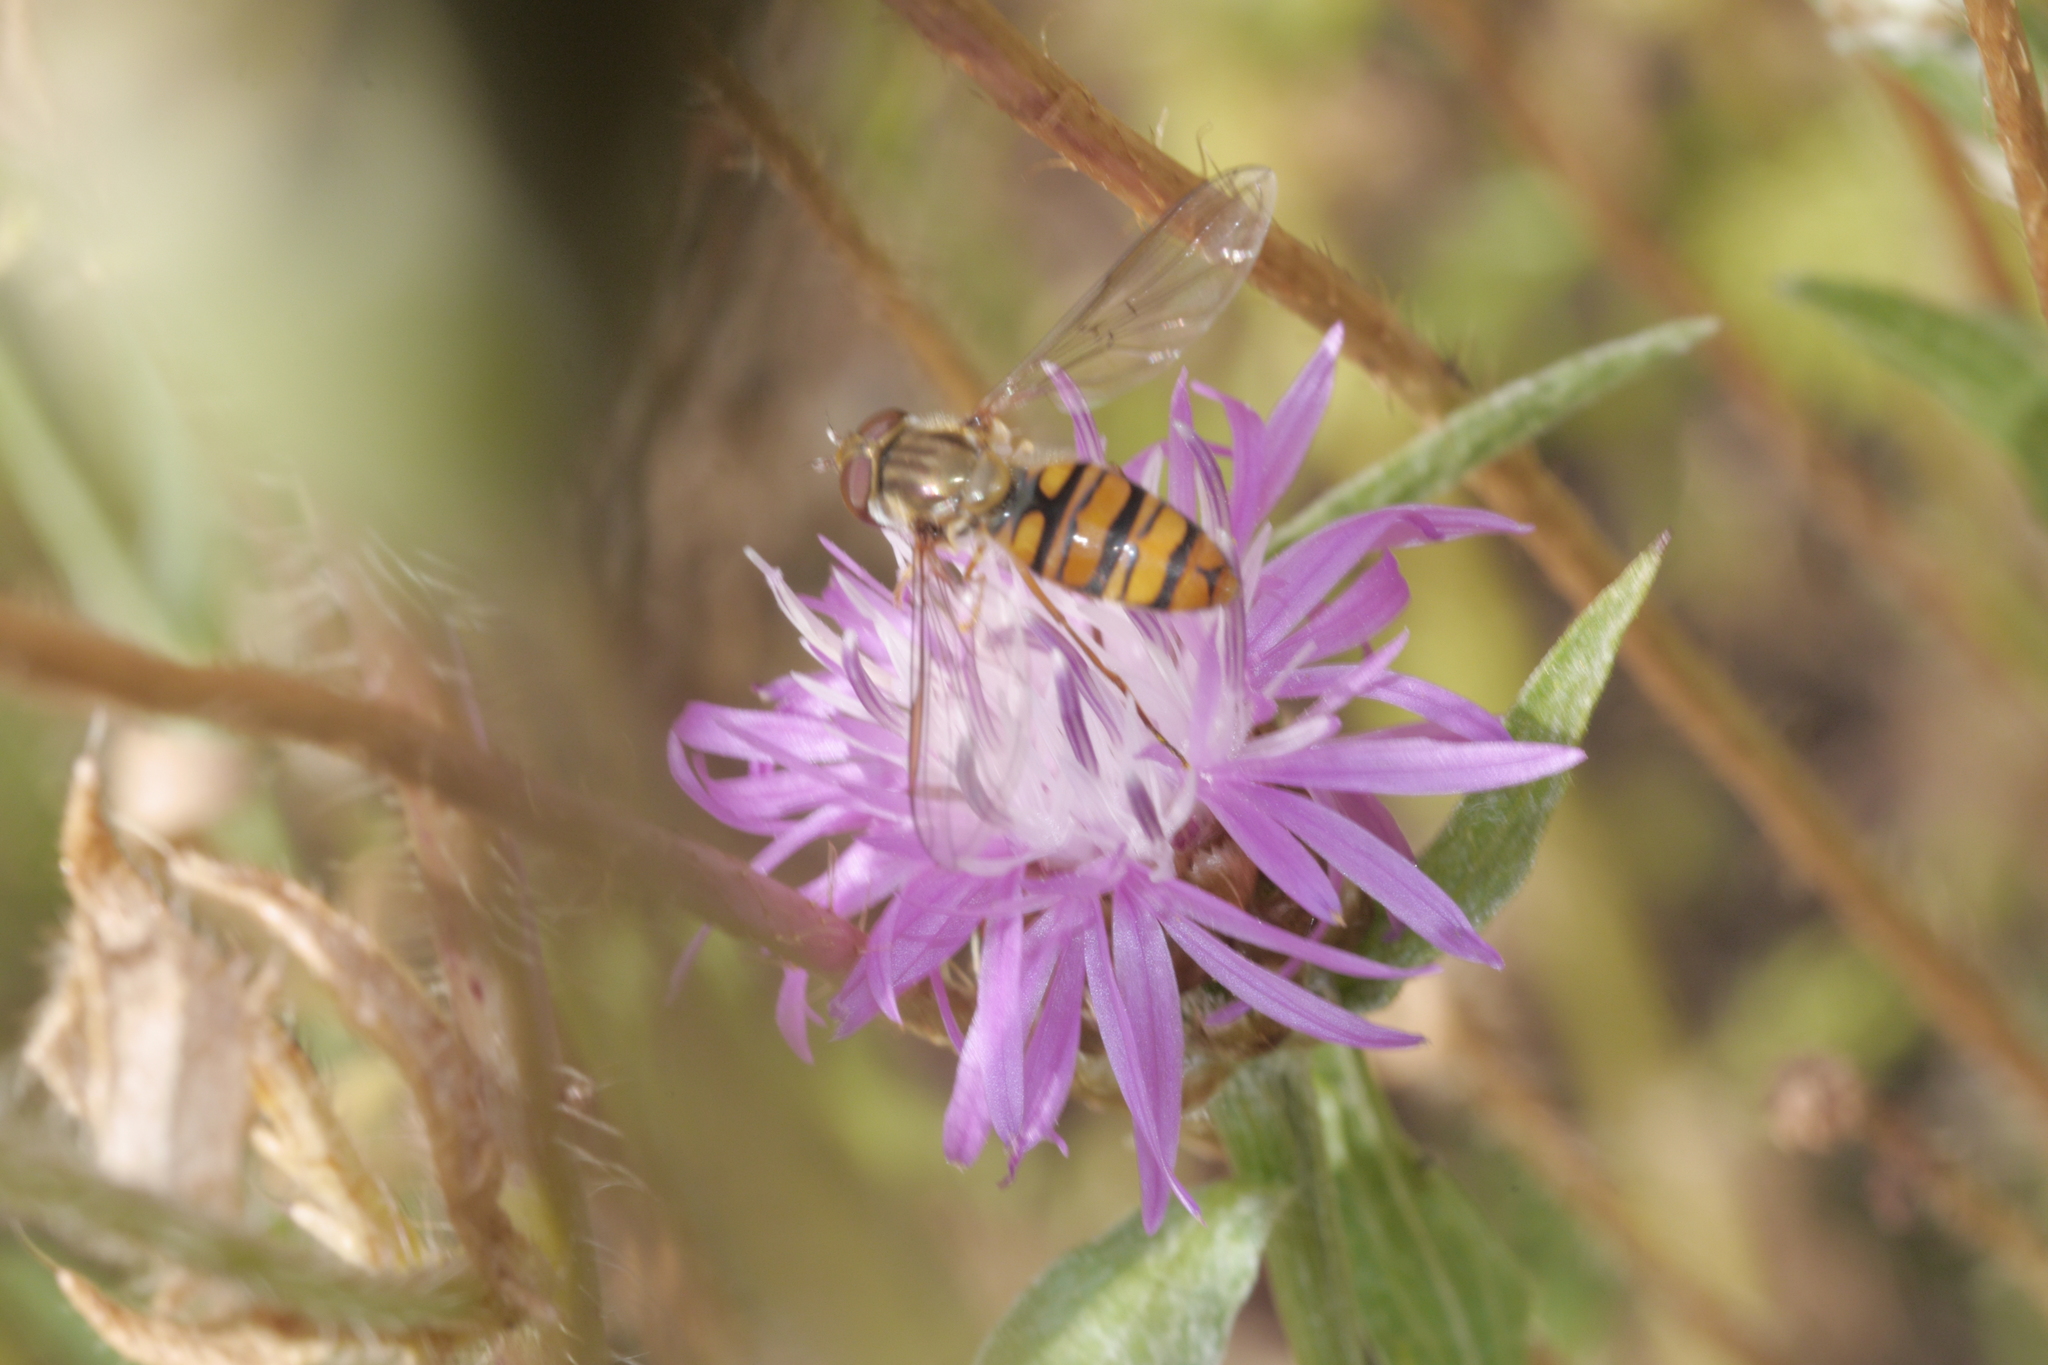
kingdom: Animalia
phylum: Arthropoda
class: Insecta
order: Diptera
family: Syrphidae
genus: Episyrphus
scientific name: Episyrphus balteatus
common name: Marmalade hoverfly
